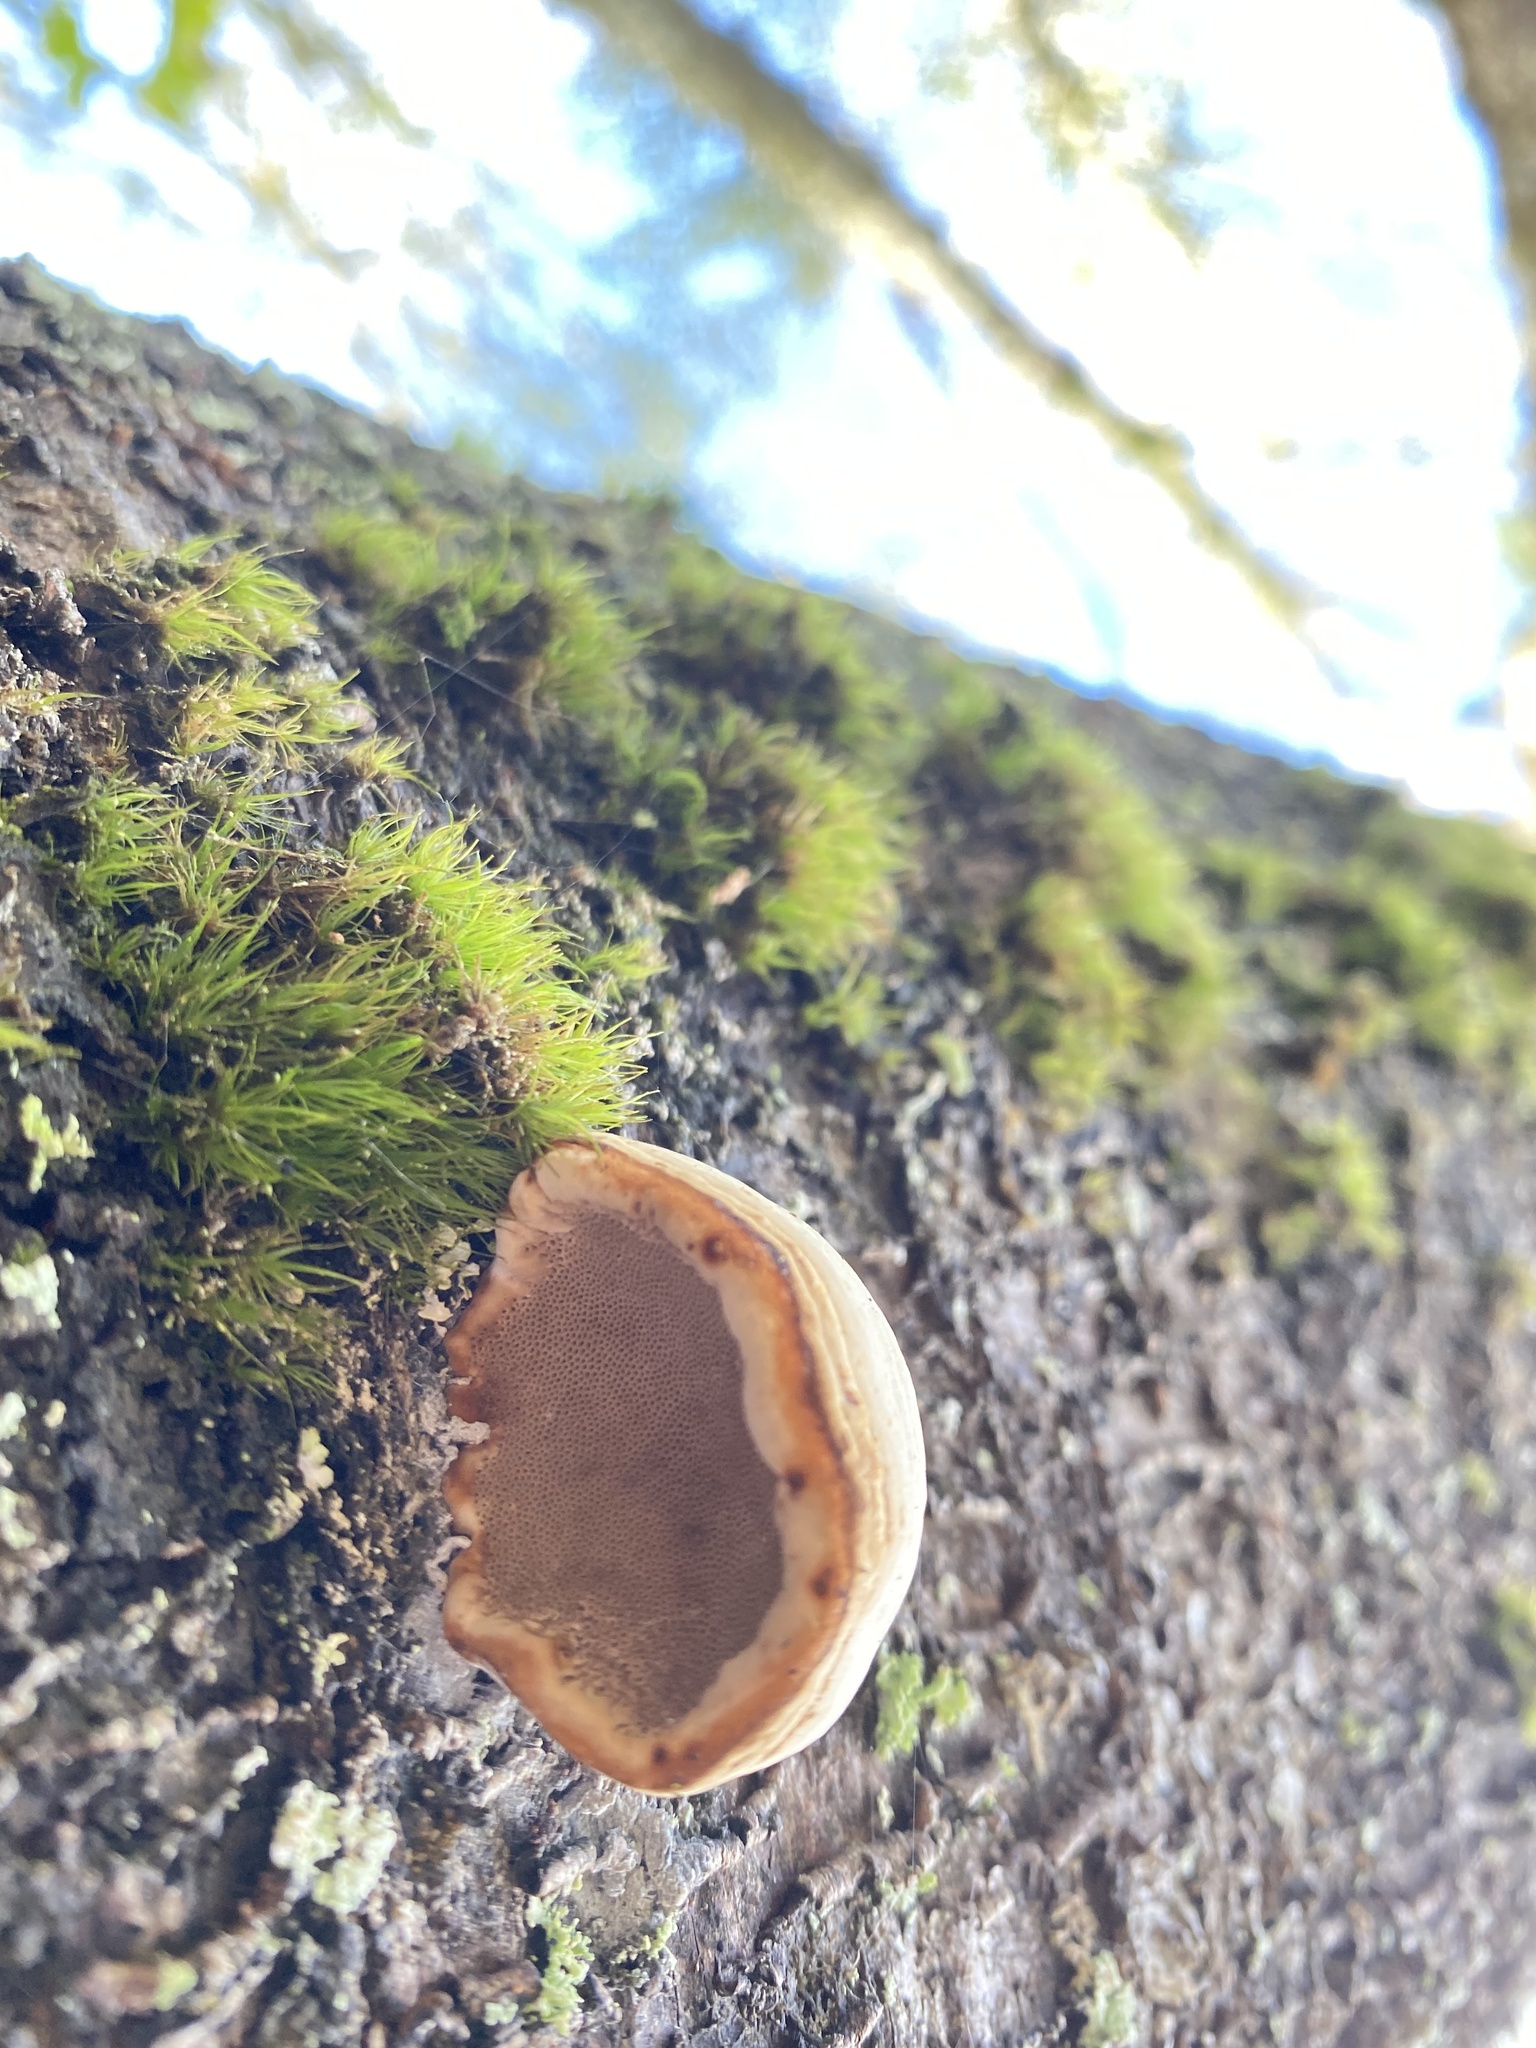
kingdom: Fungi
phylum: Basidiomycota
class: Agaricomycetes
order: Polyporales
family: Polyporaceae
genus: Fomes
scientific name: Fomes fomentarius
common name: Hoof fungus
